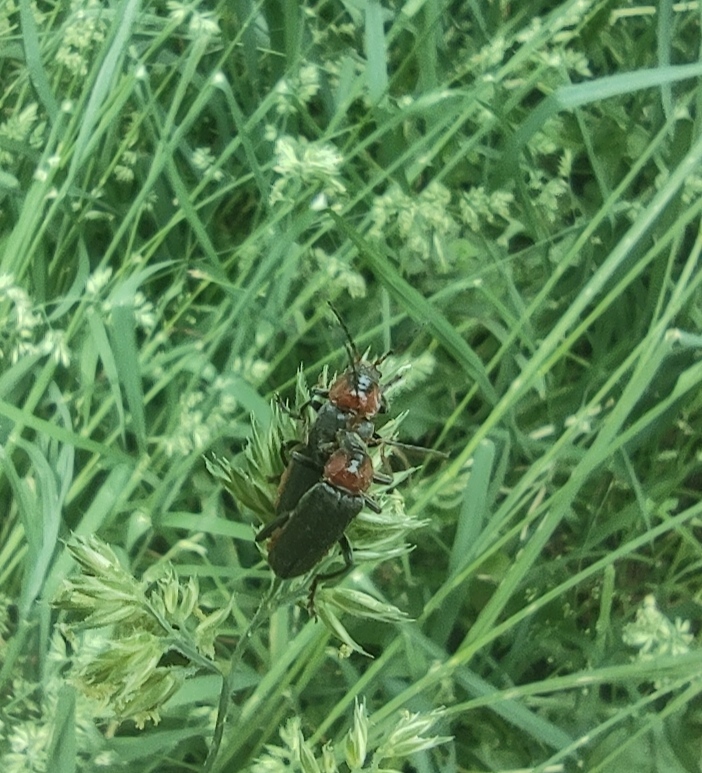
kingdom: Animalia
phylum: Arthropoda
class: Insecta
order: Coleoptera
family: Cantharidae
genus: Cantharis
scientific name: Cantharis fusca
